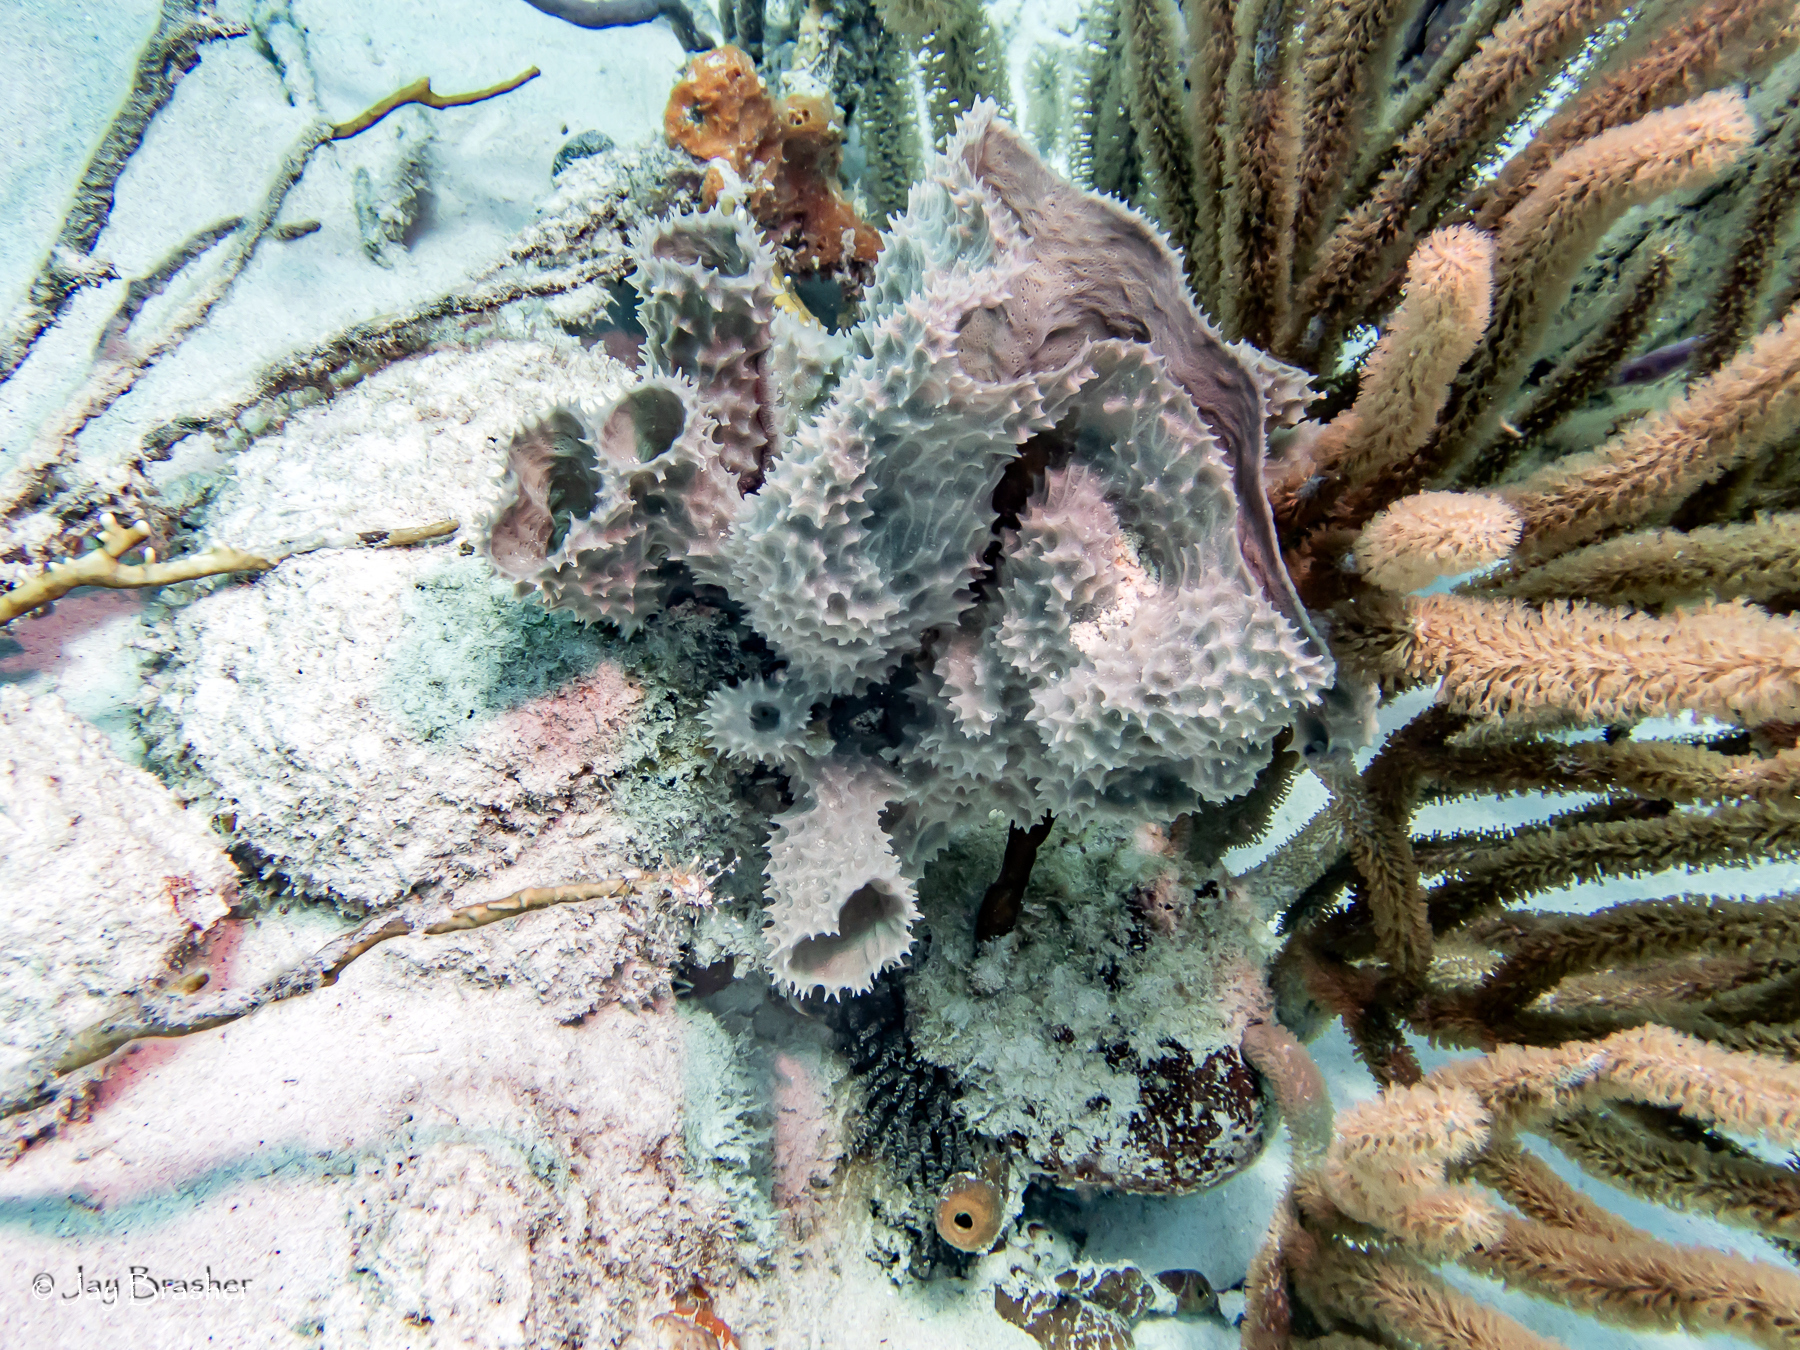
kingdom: Animalia
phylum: Porifera
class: Demospongiae
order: Haplosclerida
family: Callyspongiidae
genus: Callyspongia
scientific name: Callyspongia aculeata
